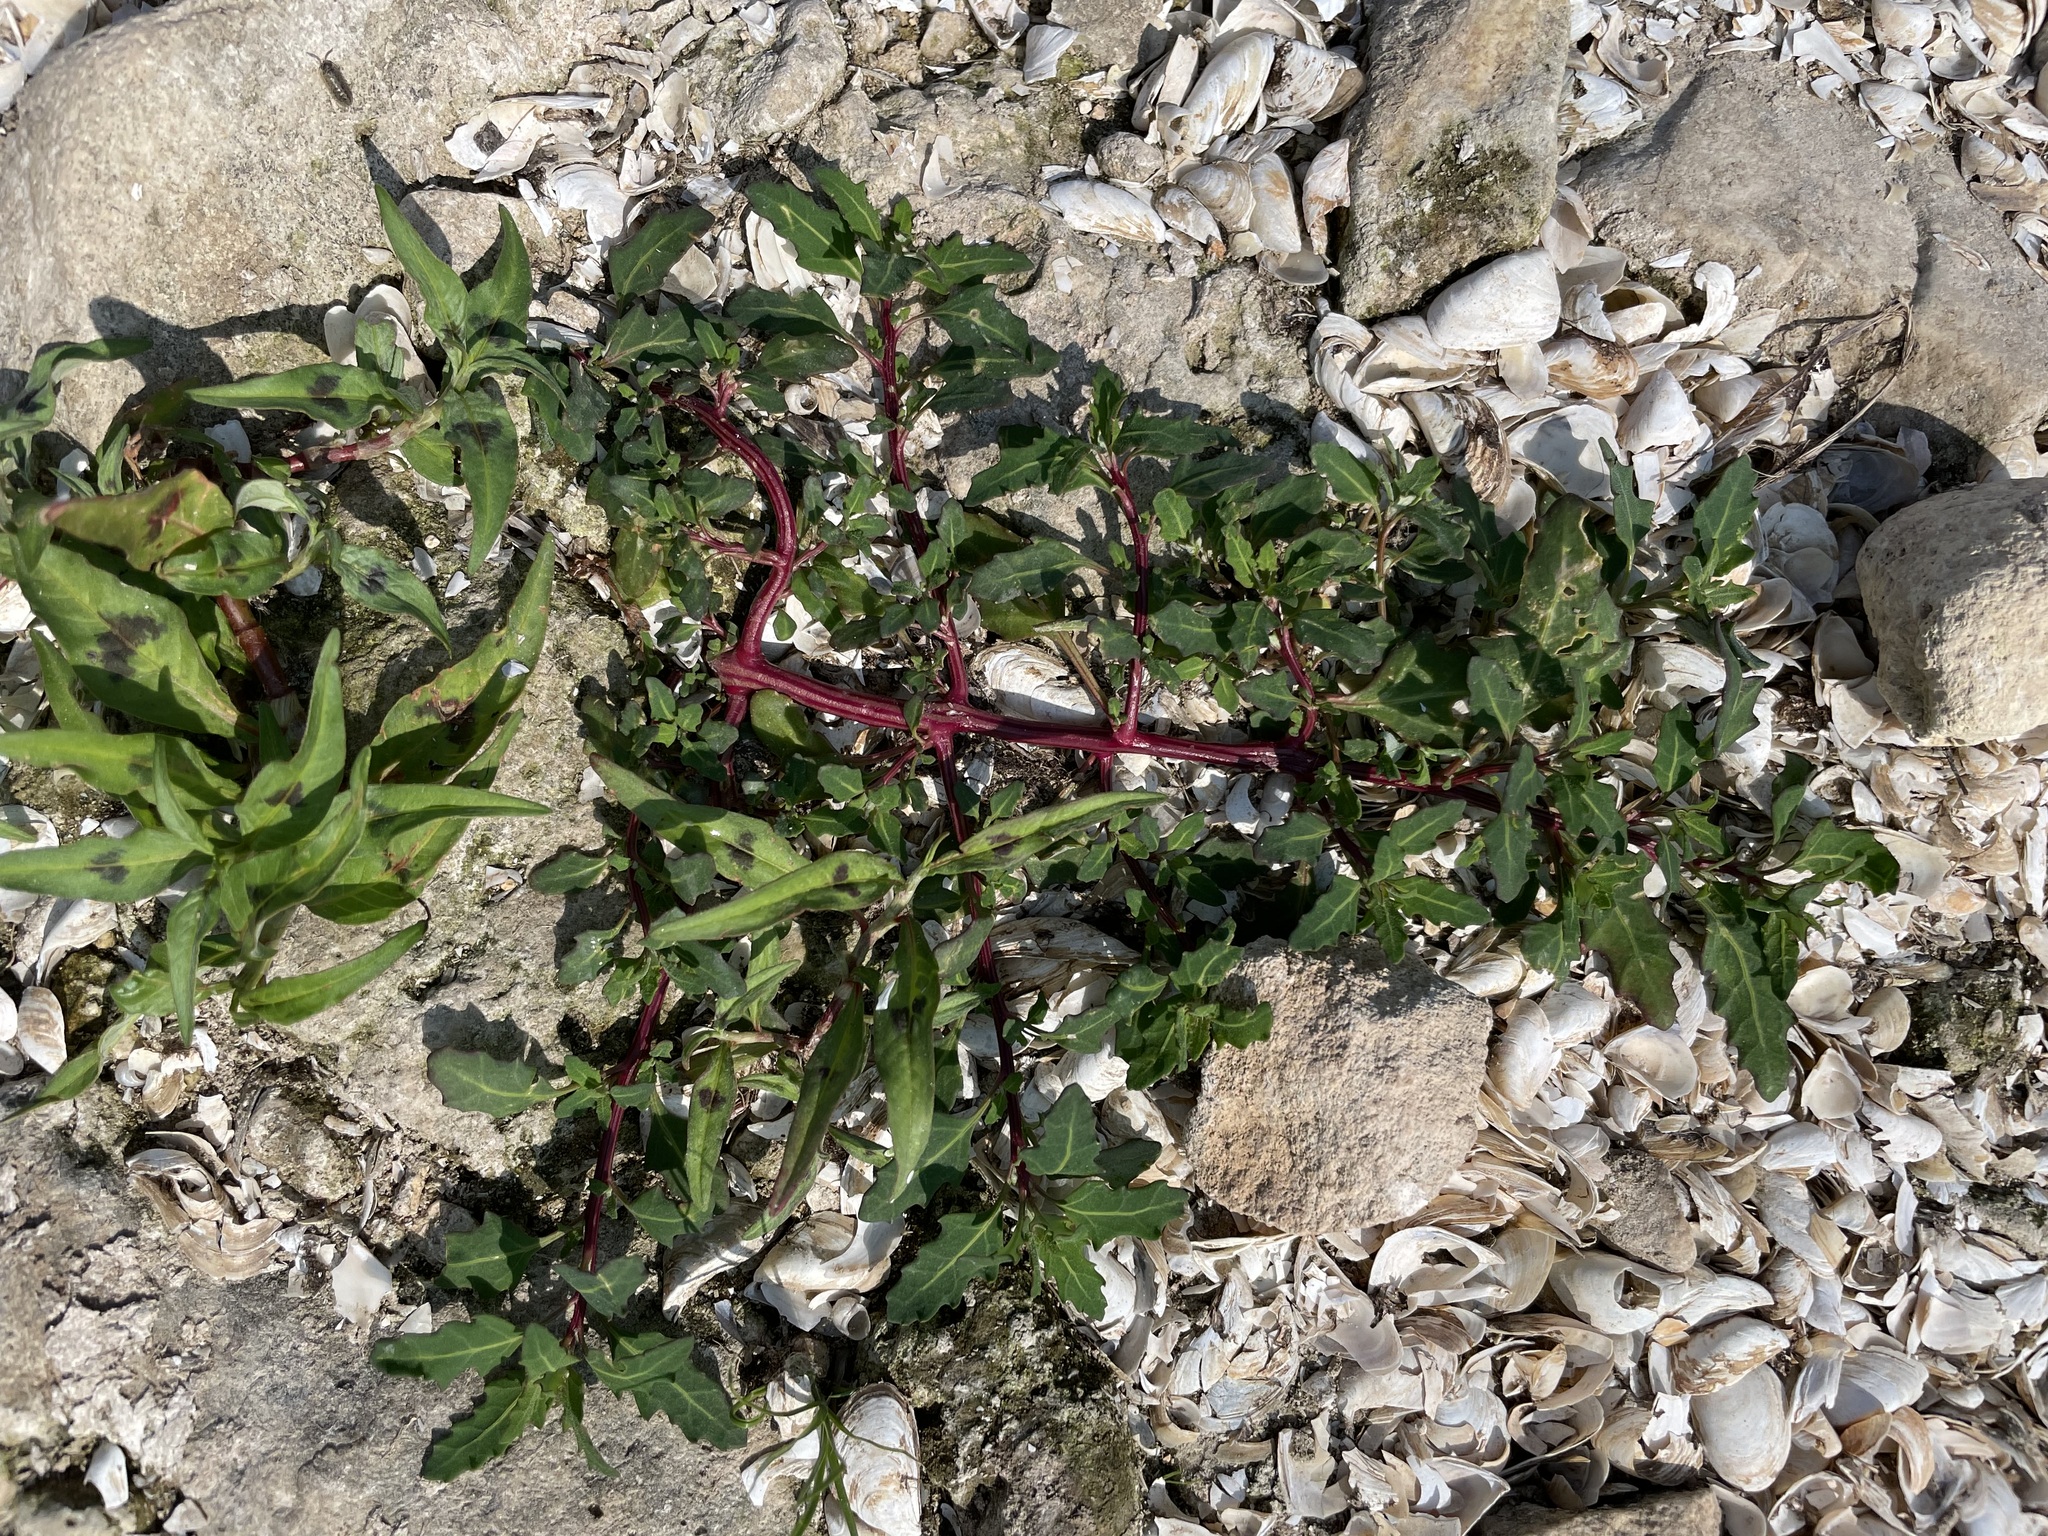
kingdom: Plantae
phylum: Tracheophyta
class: Magnoliopsida
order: Caryophyllales
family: Amaranthaceae
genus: Oxybasis
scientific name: Oxybasis glauca
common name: Glaucous goosefoot
